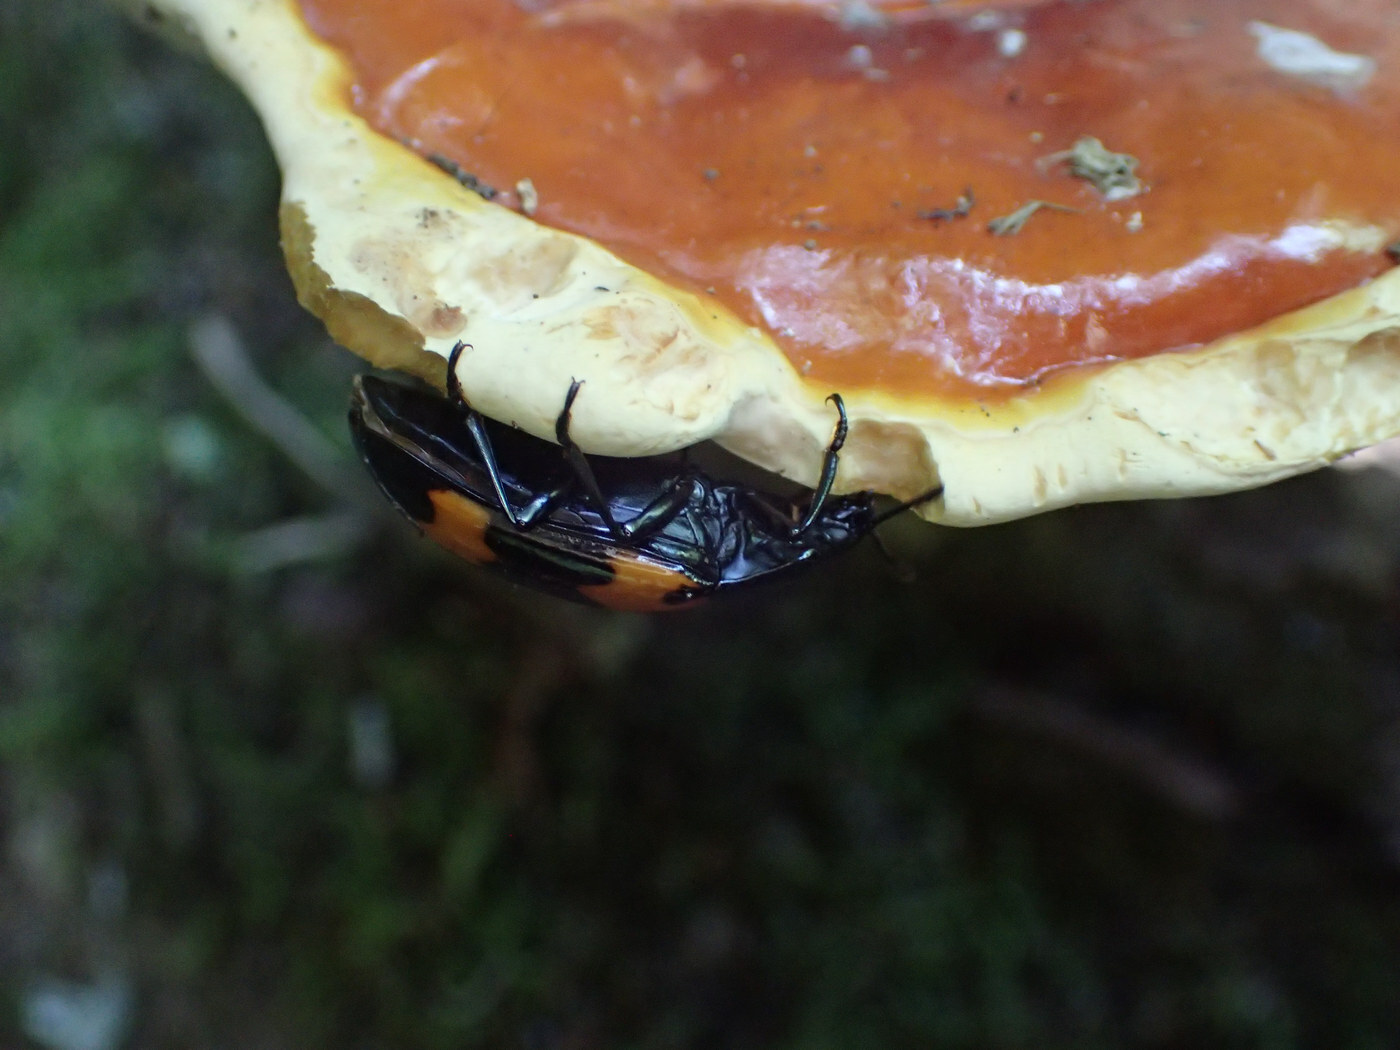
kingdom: Animalia
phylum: Arthropoda
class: Insecta
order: Coleoptera
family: Erotylidae
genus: Megalodacne
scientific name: Megalodacne heros
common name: Pleasing fungus beetle
